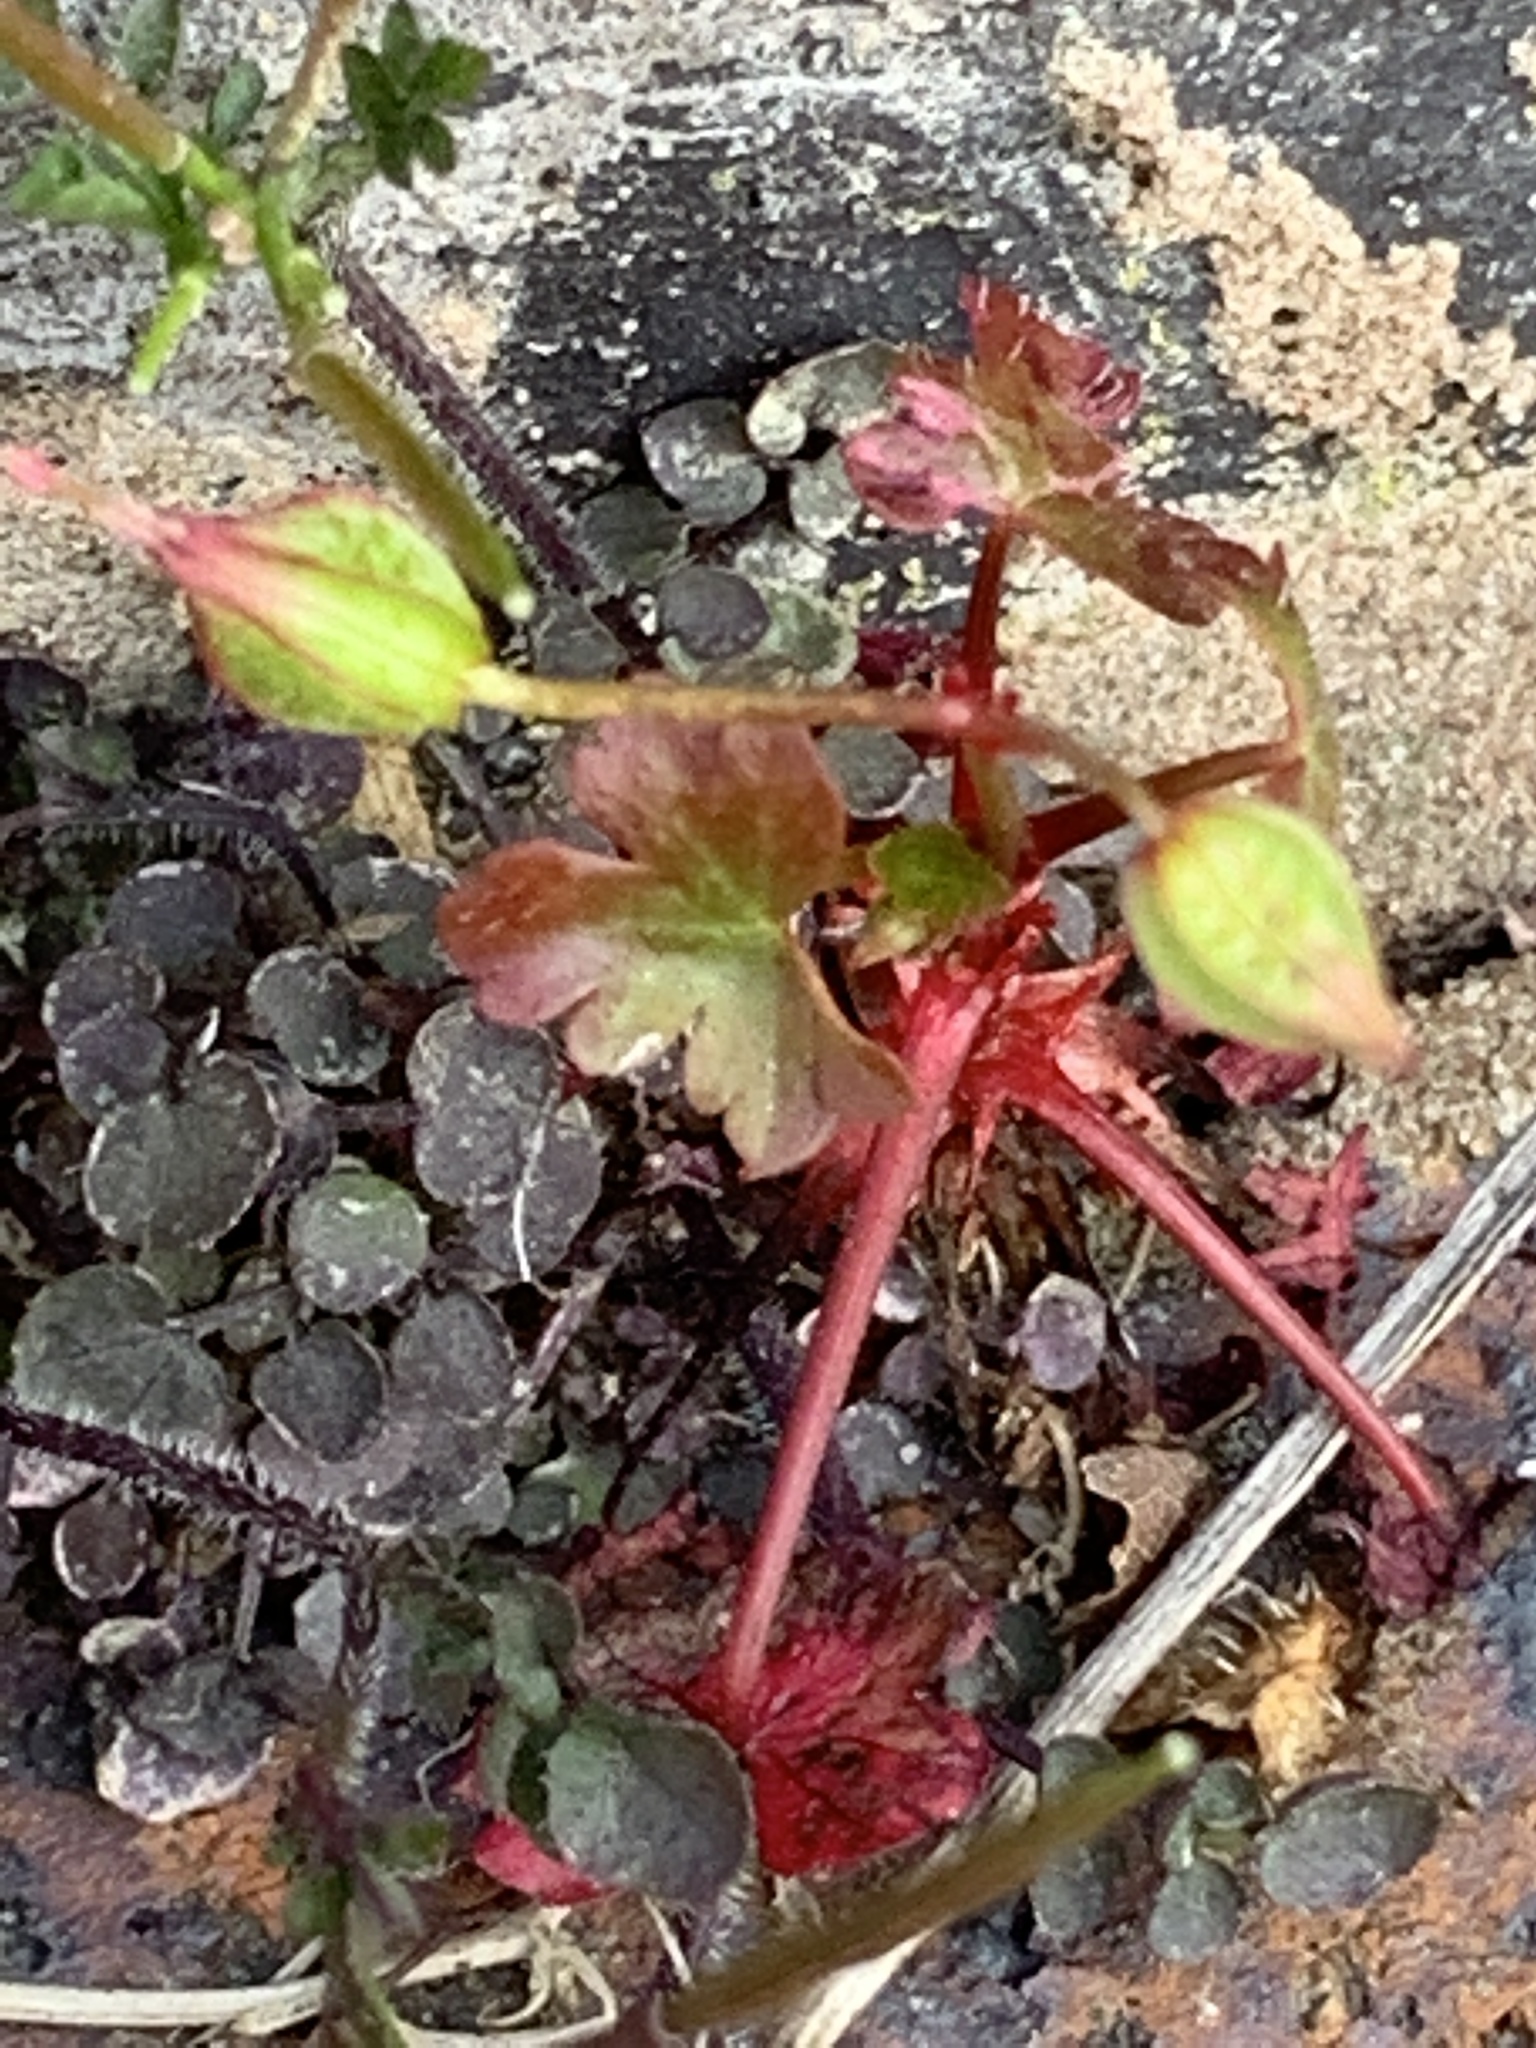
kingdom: Plantae
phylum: Tracheophyta
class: Magnoliopsida
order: Geraniales
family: Geraniaceae
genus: Geranium
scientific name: Geranium lucidum
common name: Shining crane's-bill
